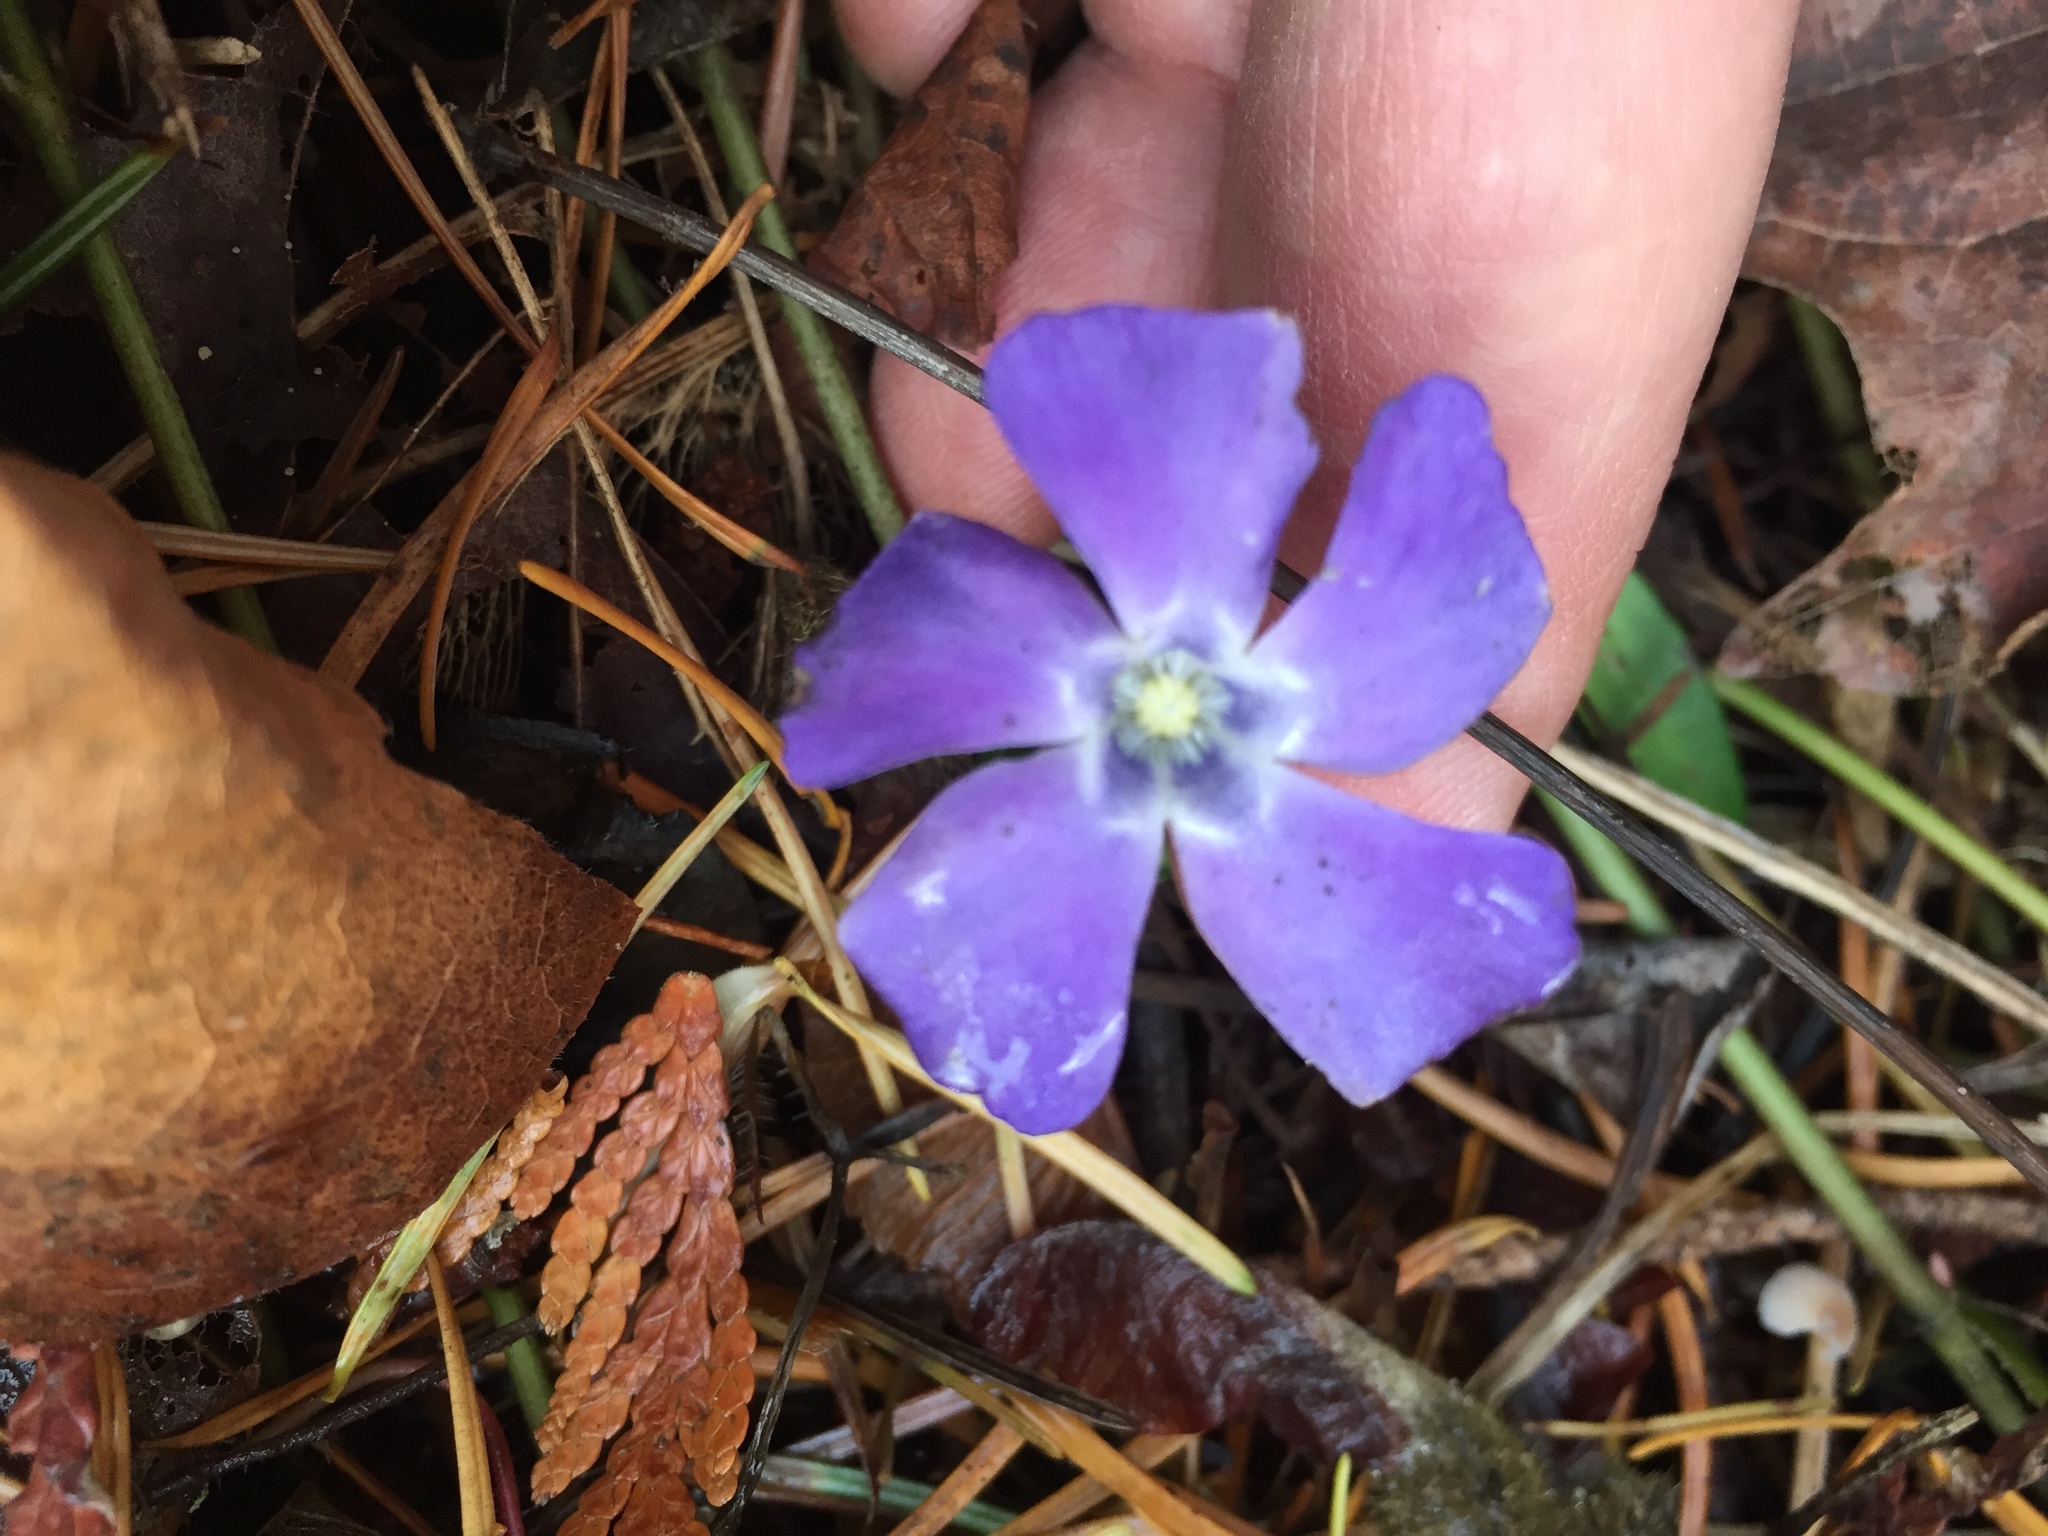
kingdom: Plantae
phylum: Tracheophyta
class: Magnoliopsida
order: Gentianales
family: Apocynaceae
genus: Vinca
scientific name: Vinca minor
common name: Lesser periwinkle
